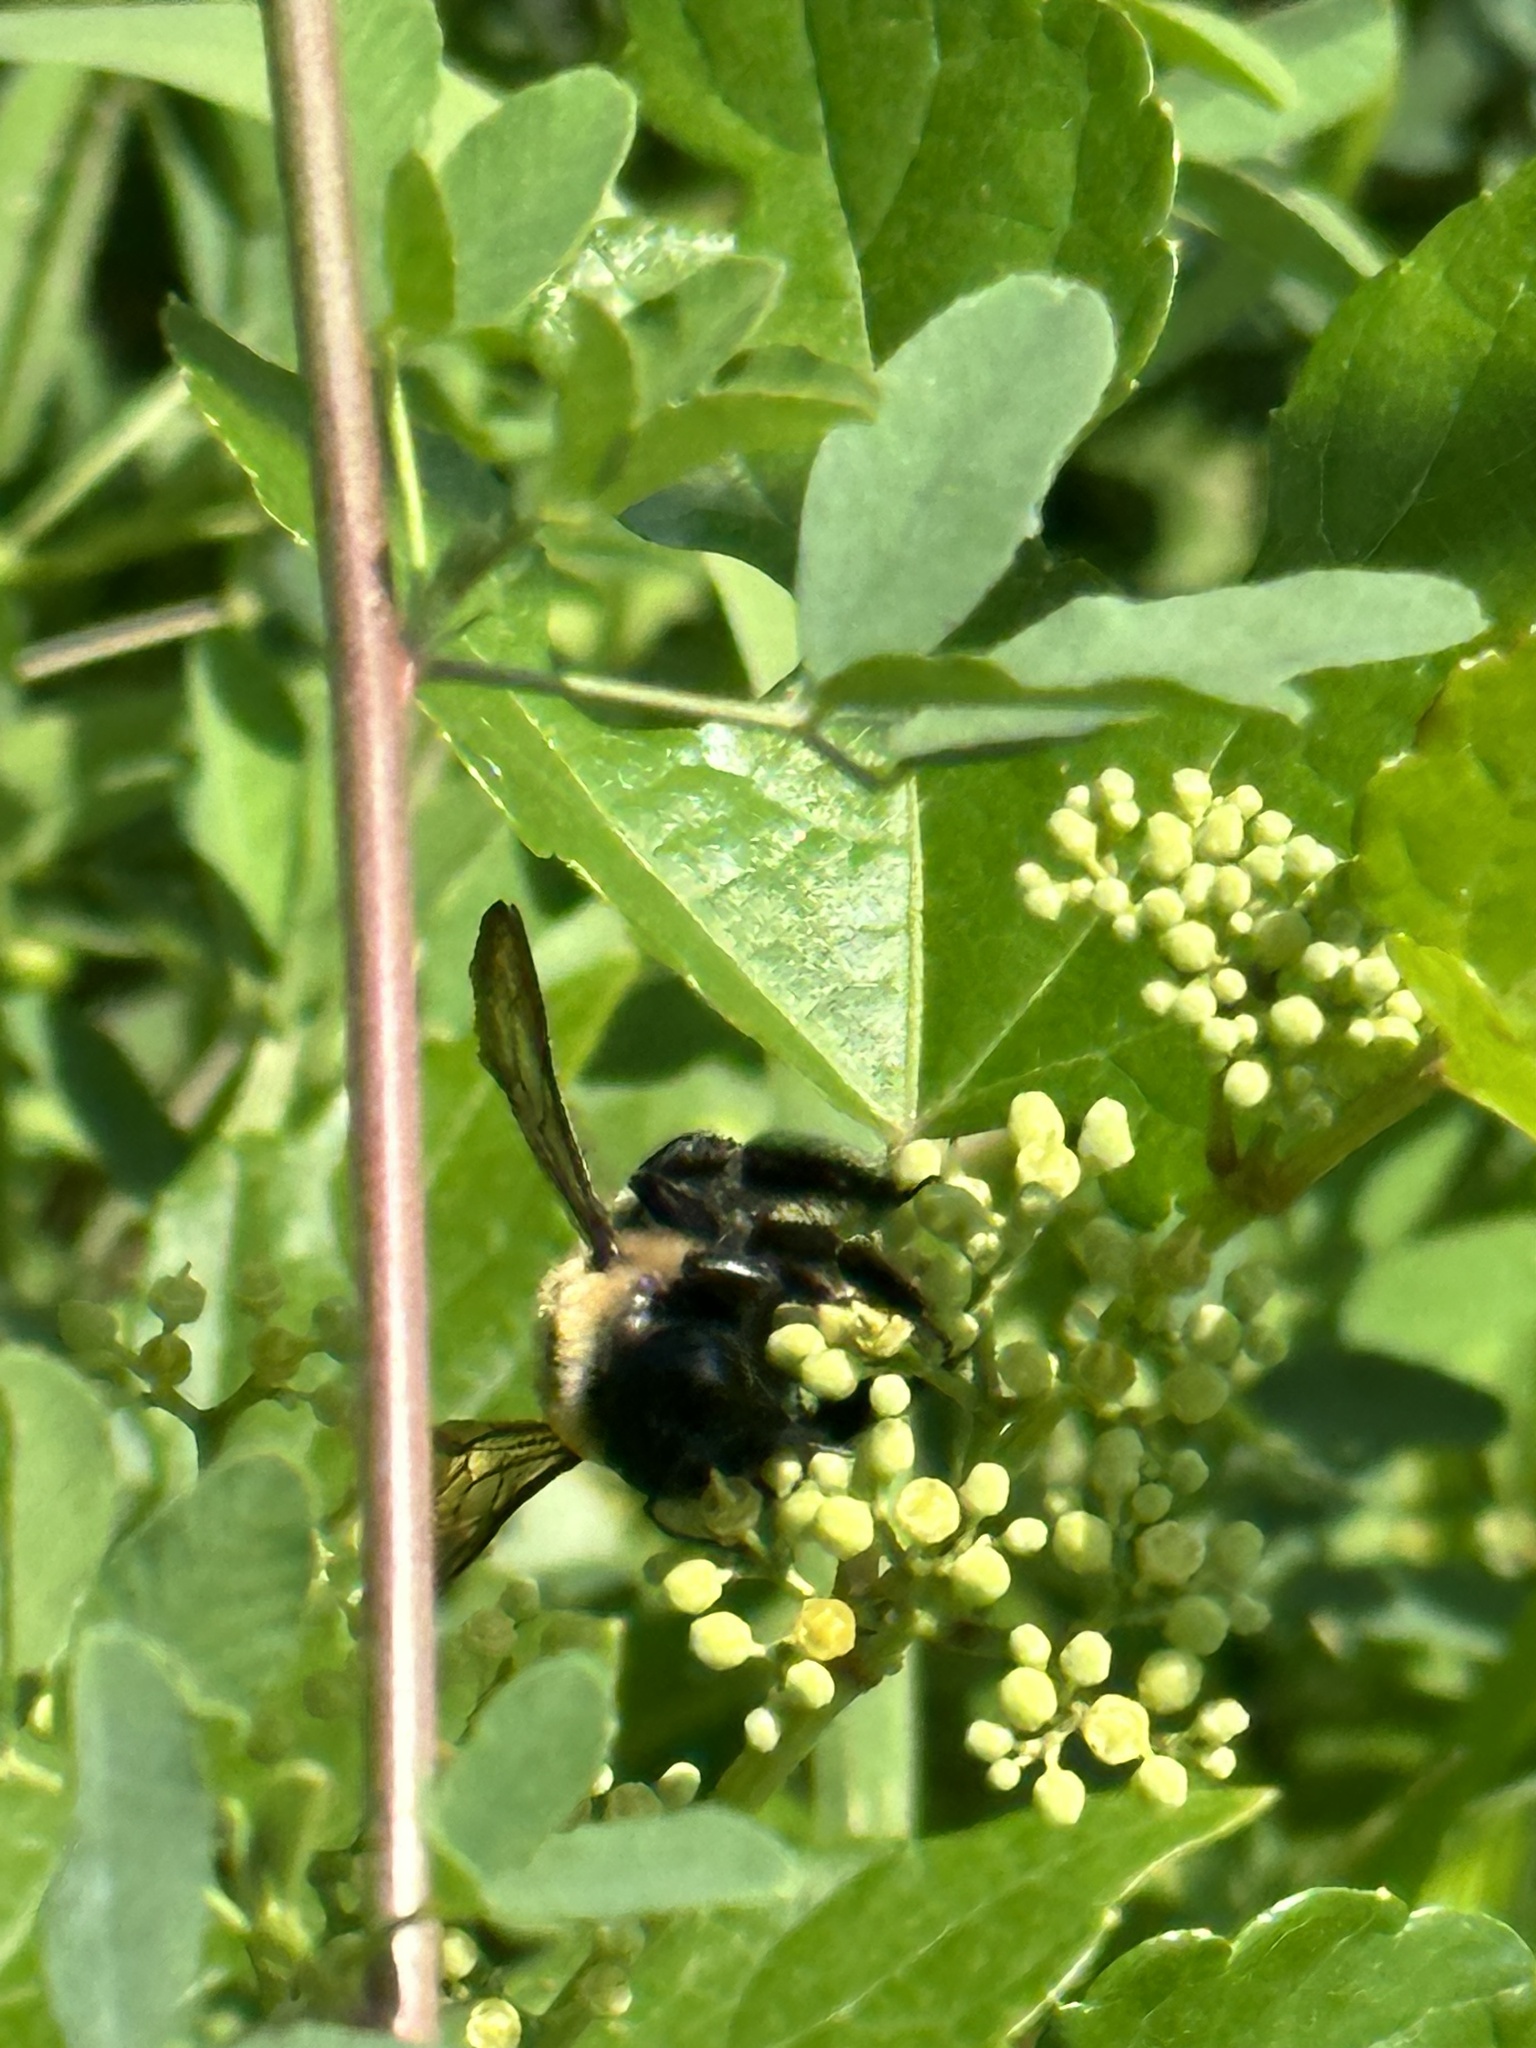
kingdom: Animalia
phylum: Arthropoda
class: Insecta
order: Hymenoptera
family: Apidae
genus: Xylocopa
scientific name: Xylocopa virginica
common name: Carpenter bee
